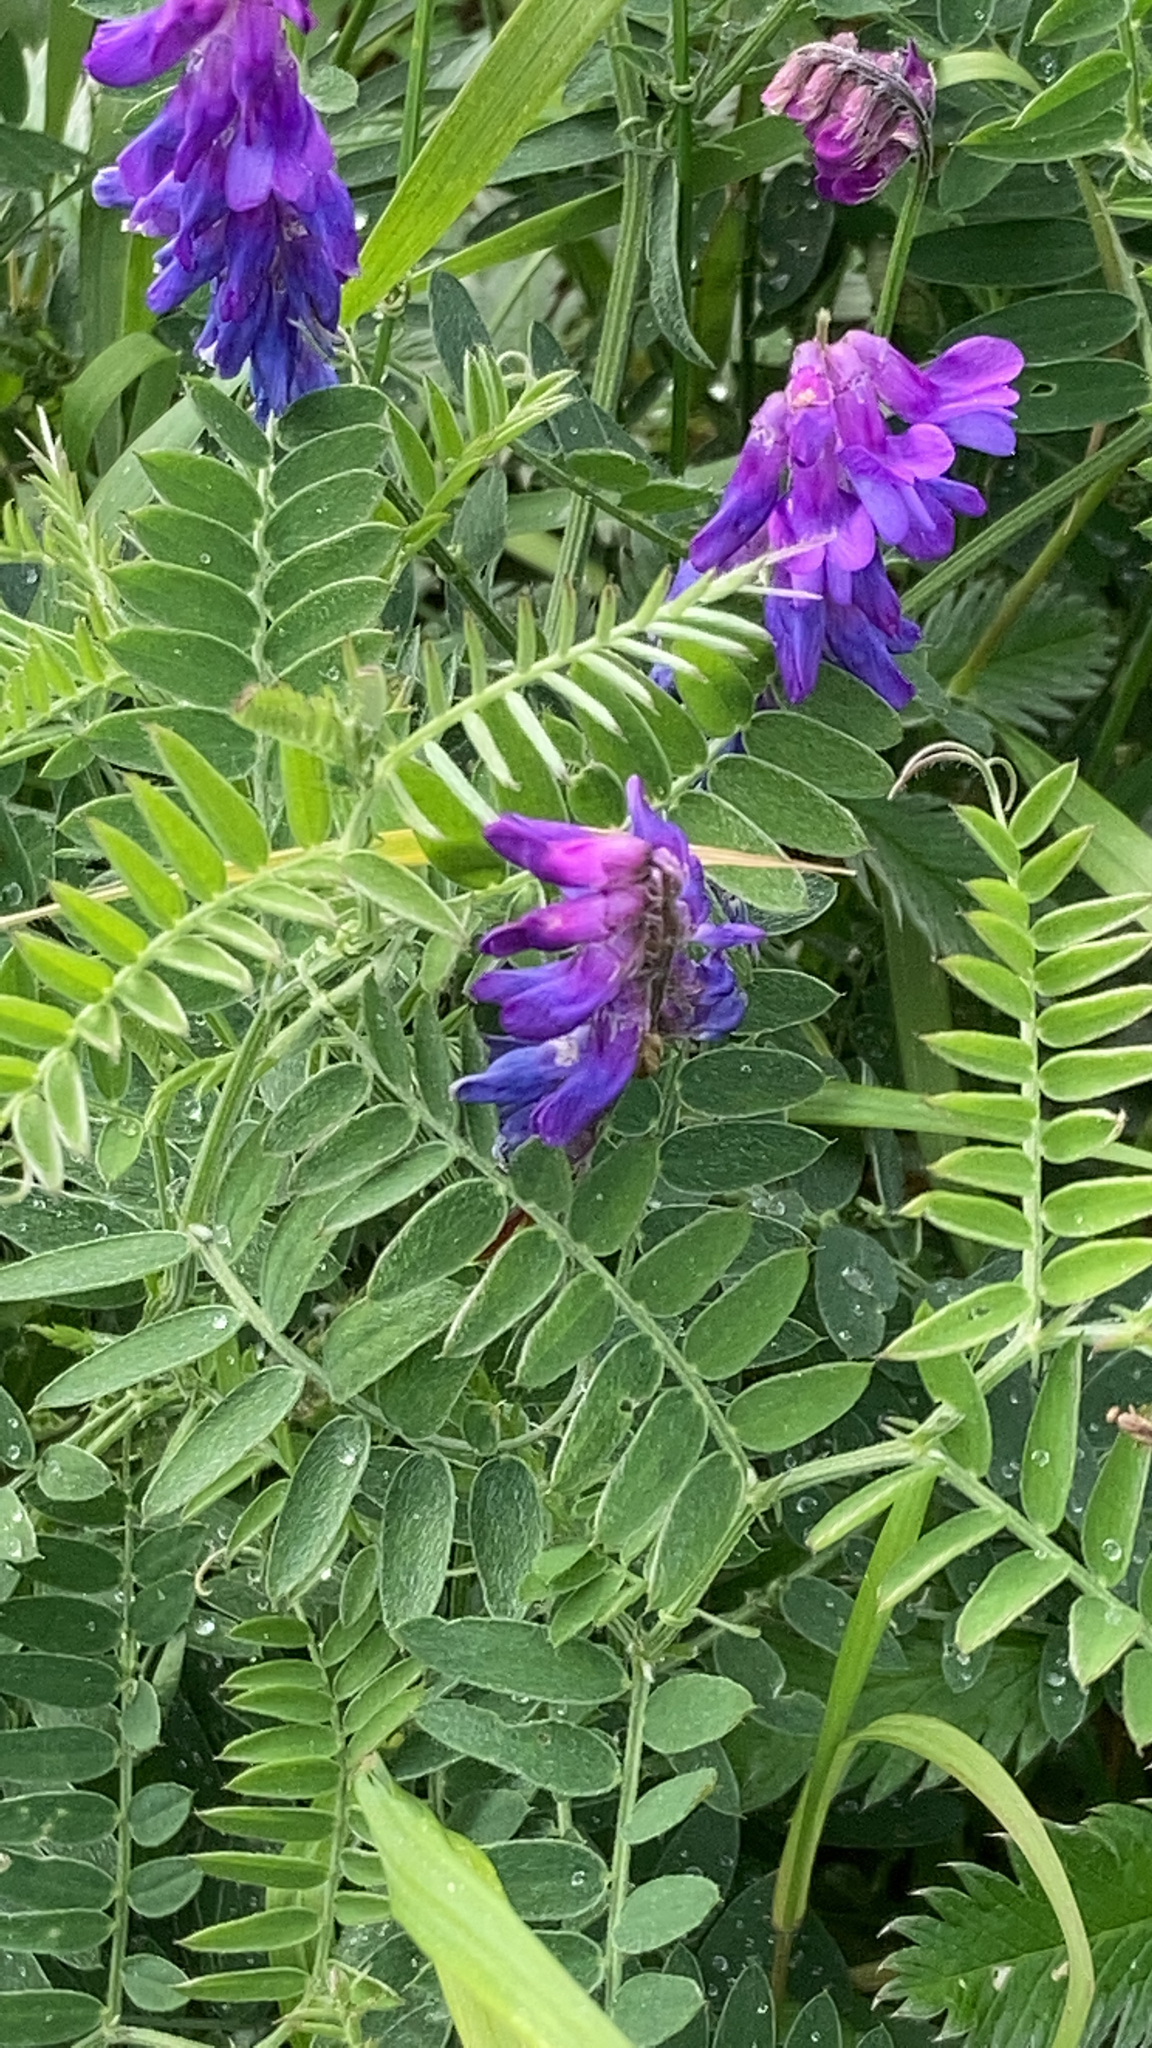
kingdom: Plantae
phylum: Tracheophyta
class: Magnoliopsida
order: Fabales
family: Fabaceae
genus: Vicia
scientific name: Vicia cracca
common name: Bird vetch
